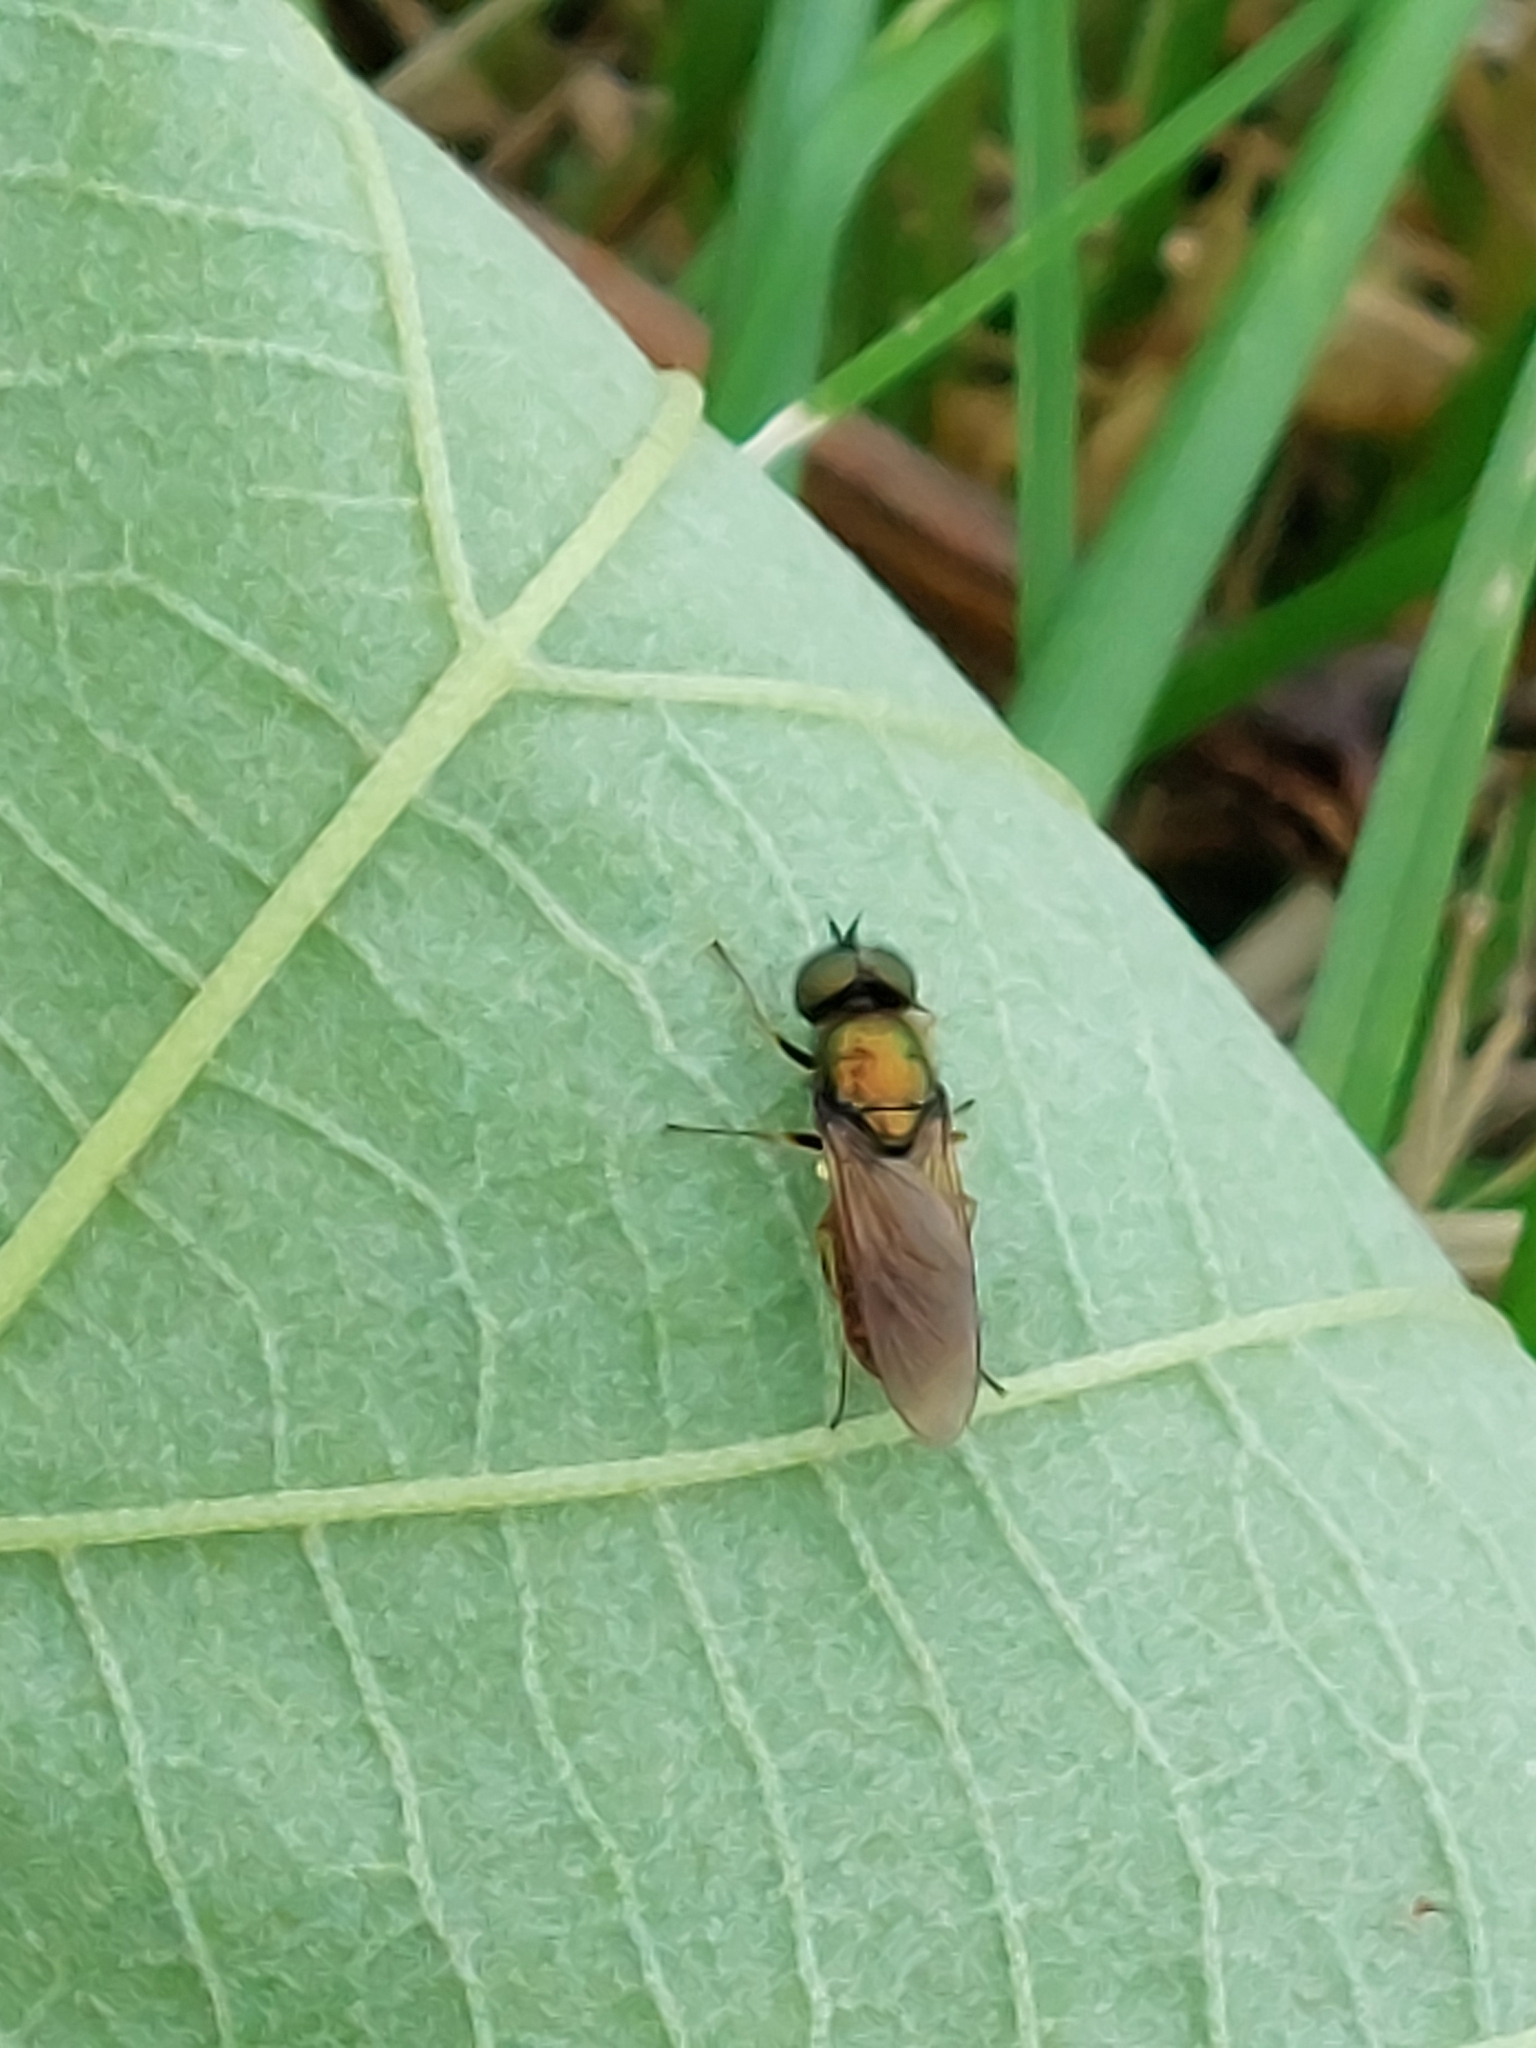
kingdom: Animalia
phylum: Arthropoda
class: Insecta
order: Diptera
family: Stratiomyidae
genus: Chloromyia
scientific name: Chloromyia formosa
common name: Soldier fly
